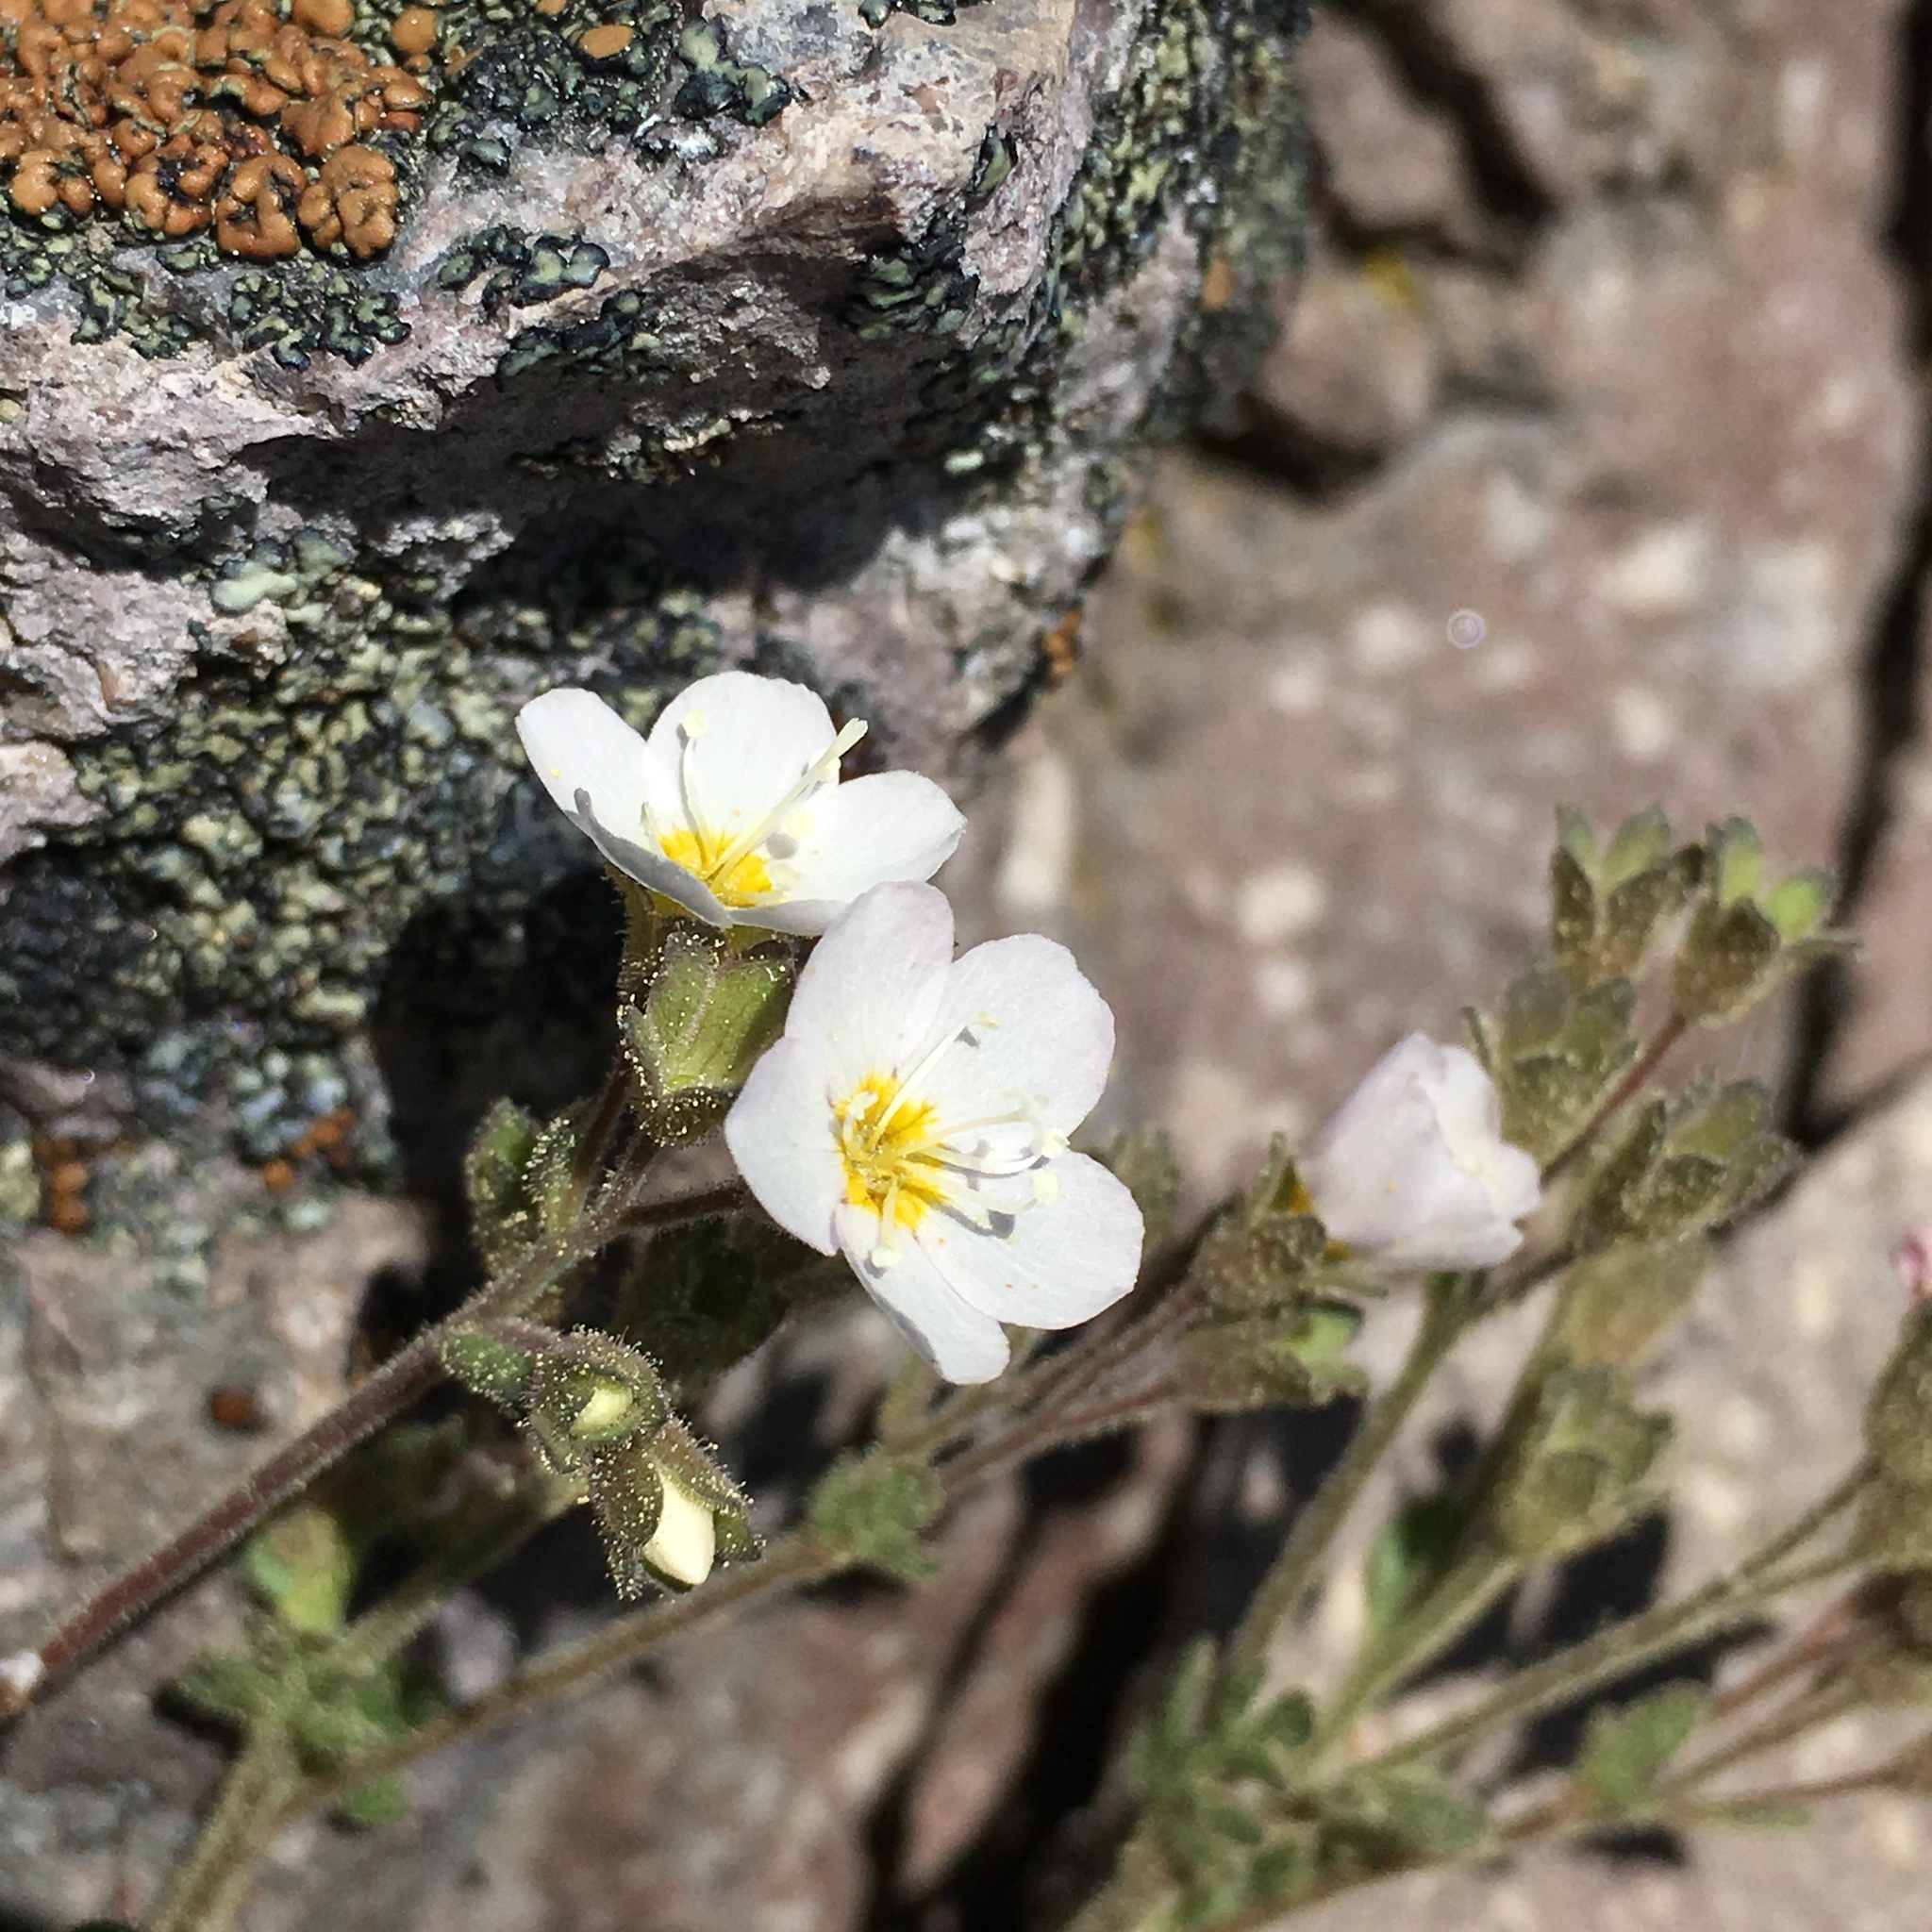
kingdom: Plantae
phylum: Tracheophyta
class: Magnoliopsida
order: Ericales
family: Polemoniaceae
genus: Polemonium
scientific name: Polemonium pulcherrimum
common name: Short jacob's-ladder
